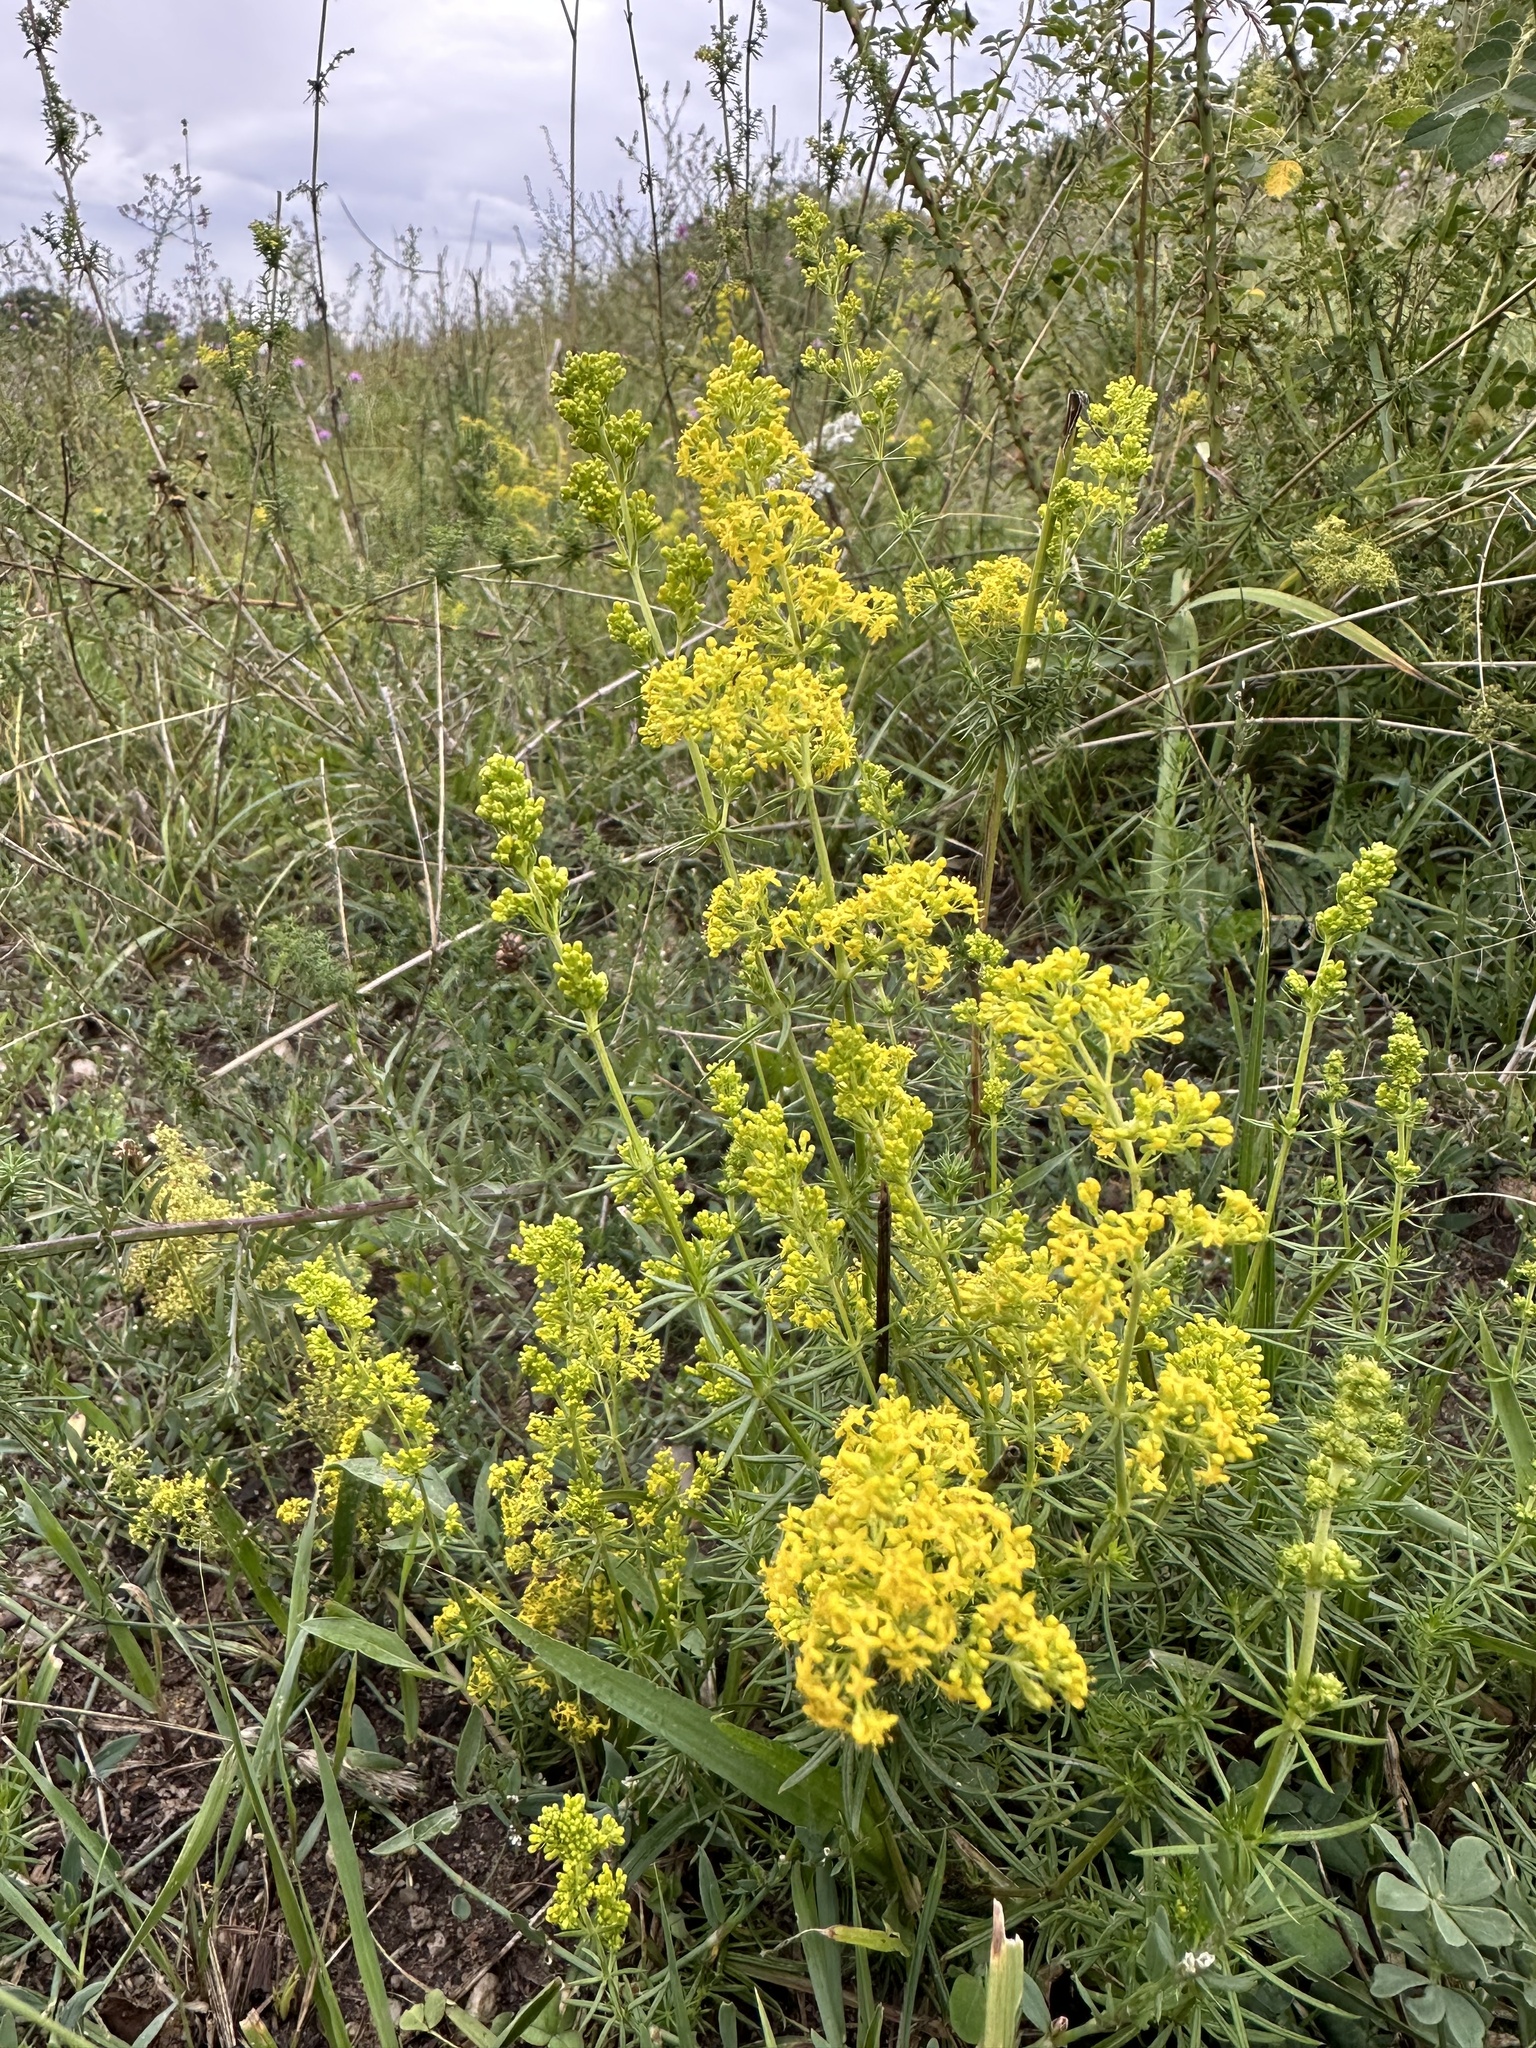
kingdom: Plantae
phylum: Tracheophyta
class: Magnoliopsida
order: Gentianales
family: Rubiaceae
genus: Galium
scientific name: Galium verum
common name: Lady's bedstraw
